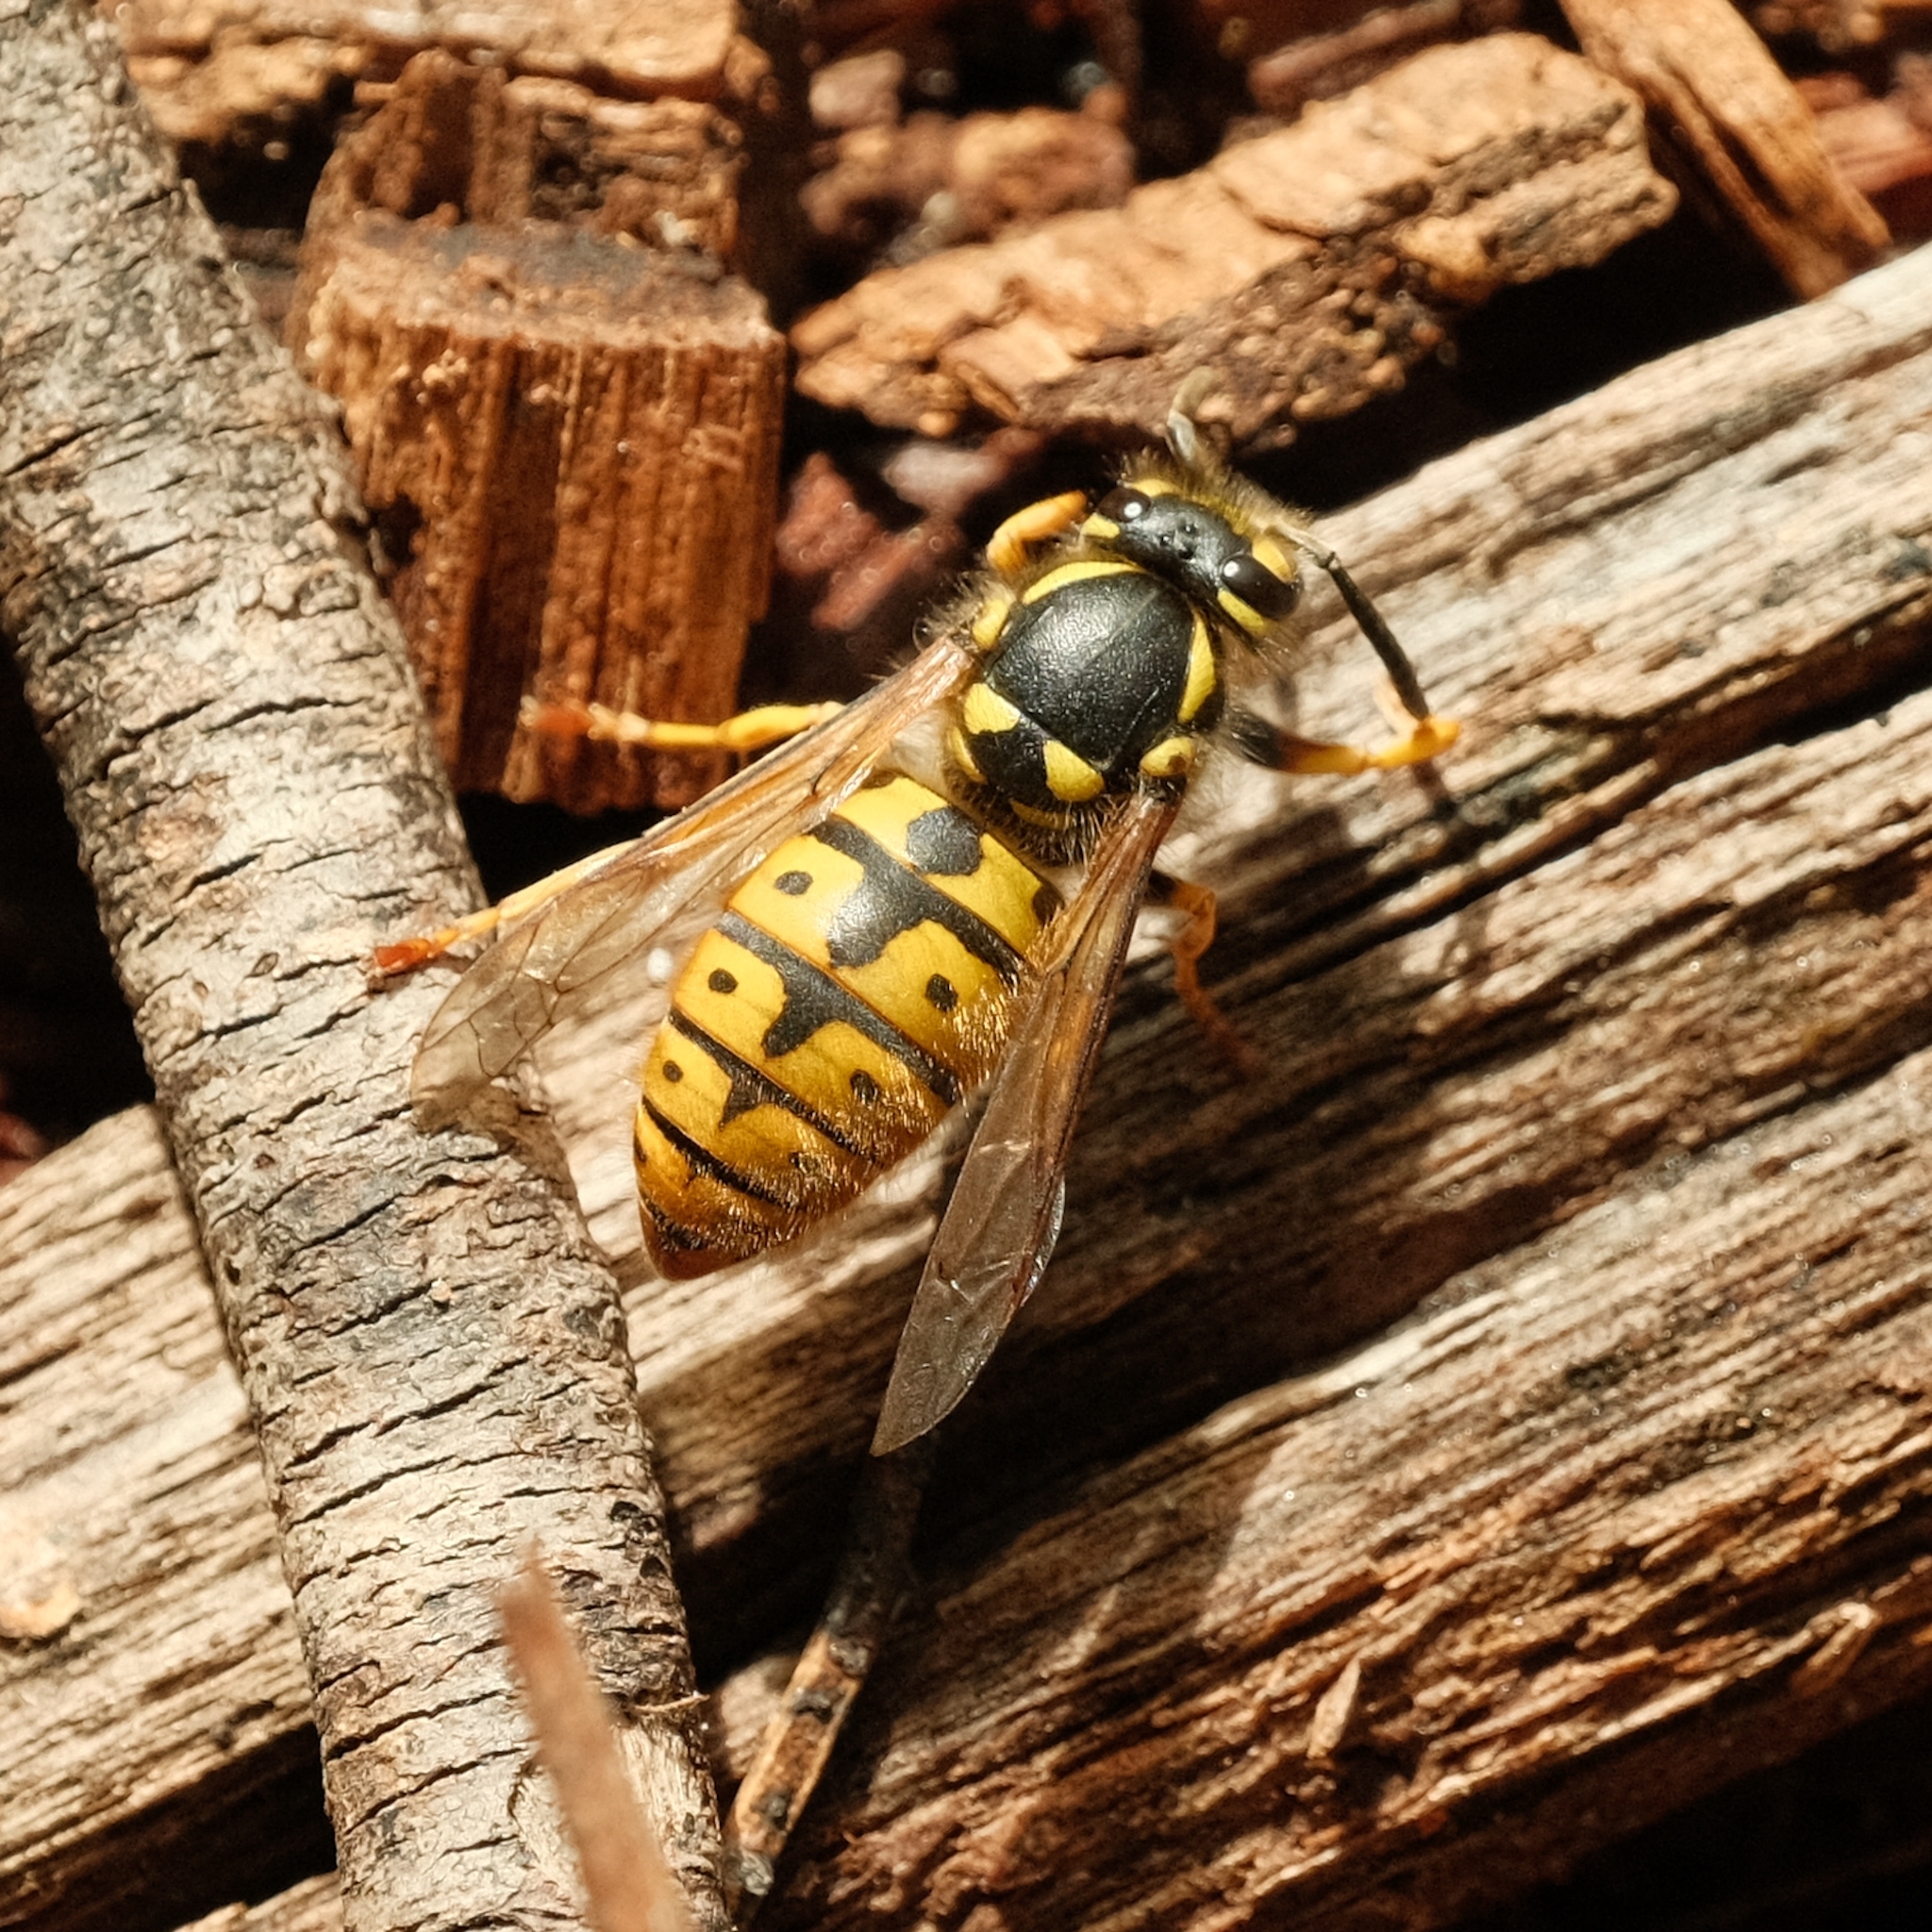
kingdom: Animalia
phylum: Arthropoda
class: Insecta
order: Hymenoptera
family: Vespidae
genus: Vespula
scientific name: Vespula germanica
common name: German wasp
